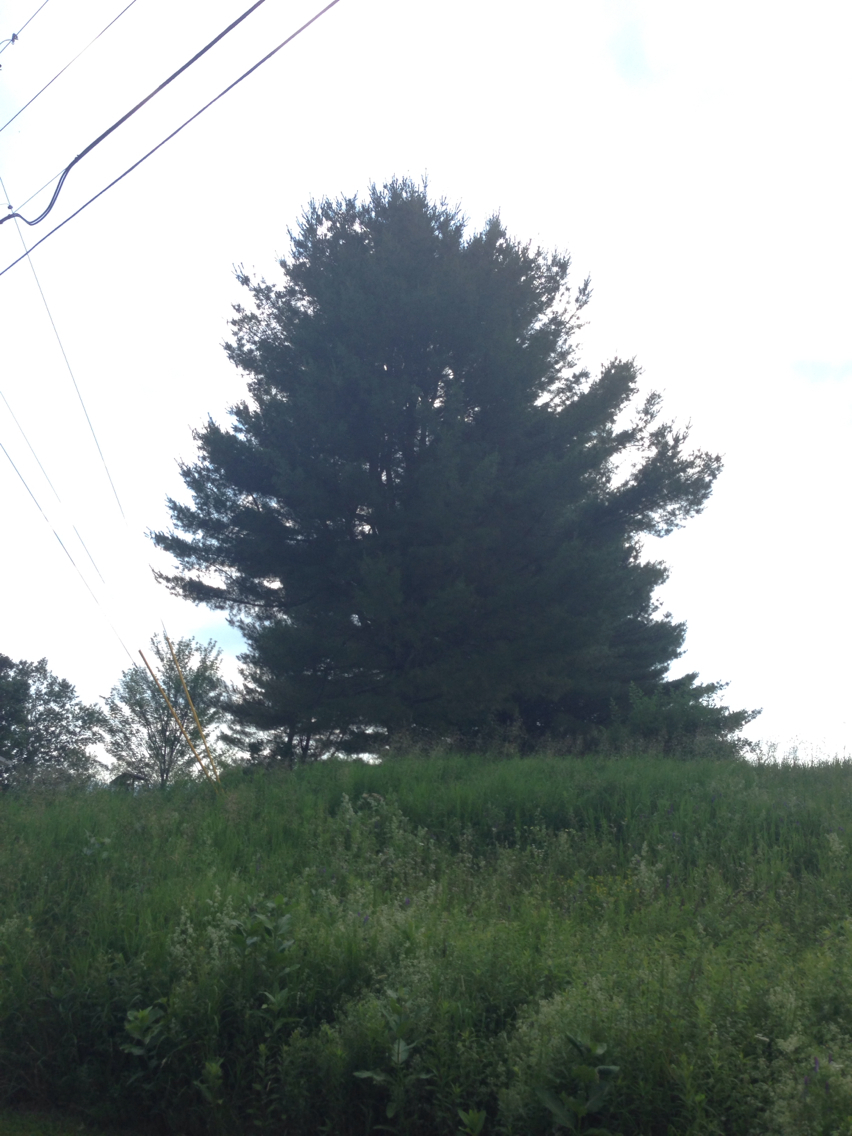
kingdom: Plantae
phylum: Tracheophyta
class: Pinopsida
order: Pinales
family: Pinaceae
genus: Pinus
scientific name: Pinus strobus
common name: Weymouth pine
